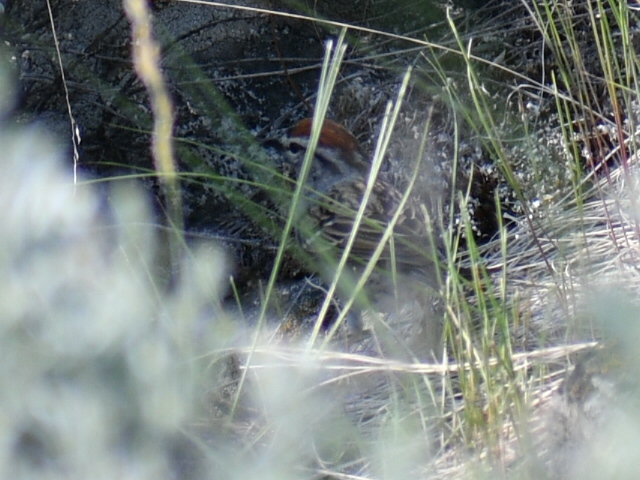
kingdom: Animalia
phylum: Chordata
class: Aves
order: Passeriformes
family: Passerellidae
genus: Spizella
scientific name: Spizella passerina
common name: Chipping sparrow
